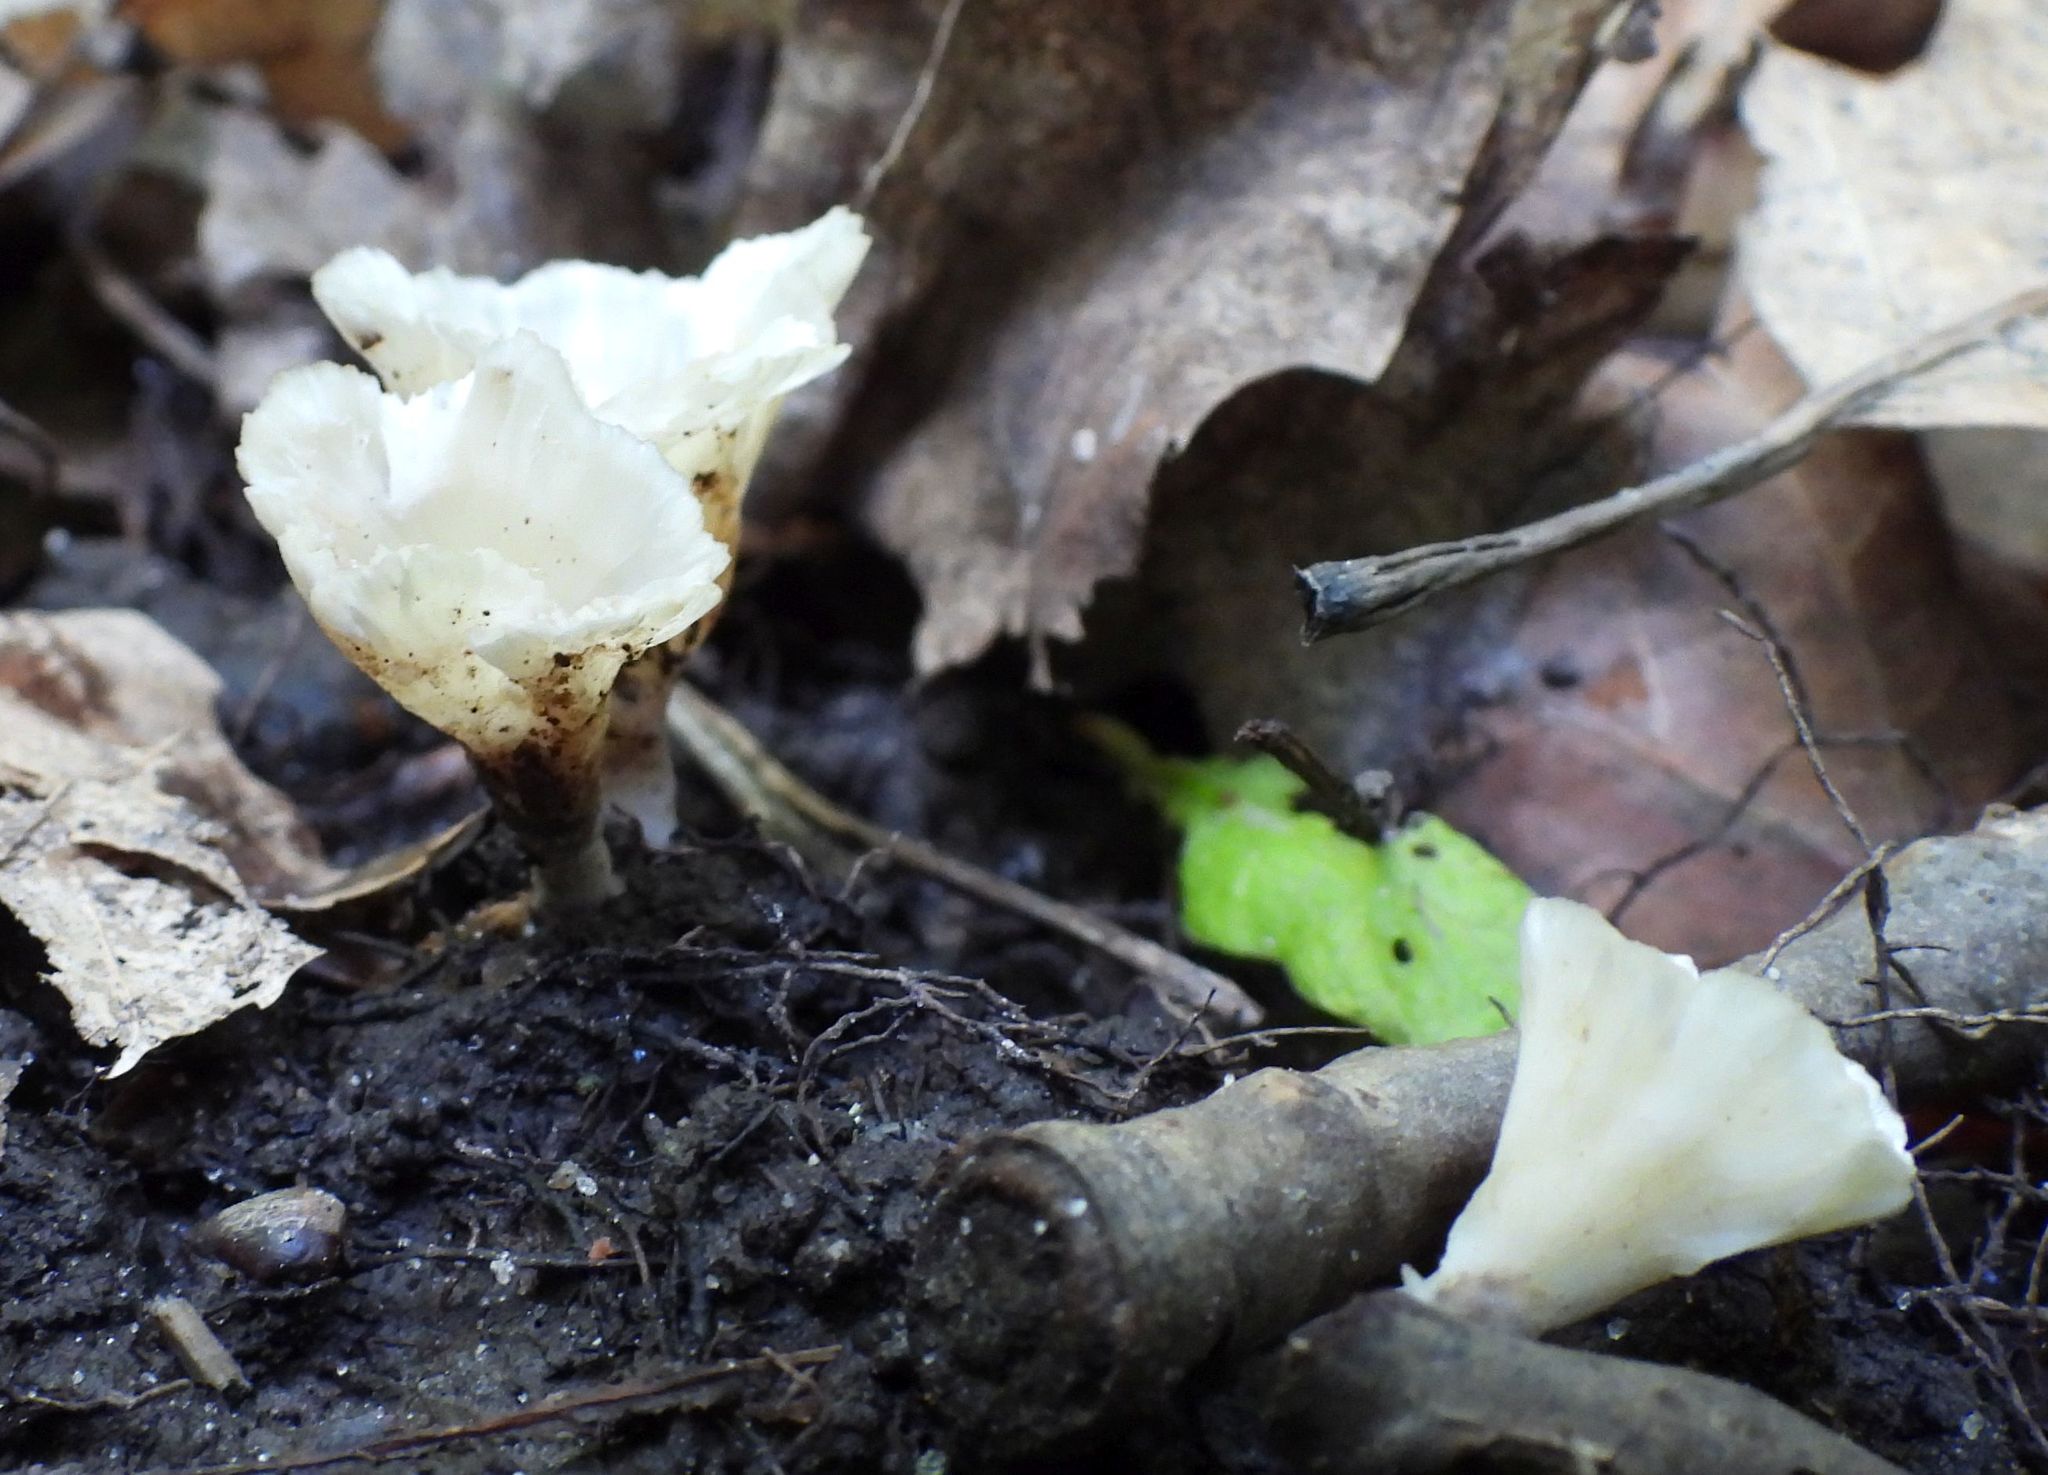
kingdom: Fungi
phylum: Basidiomycota
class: Agaricomycetes
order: Hymenochaetales
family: Rickenellaceae
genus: Cotylidia
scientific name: Cotylidia diaphana
